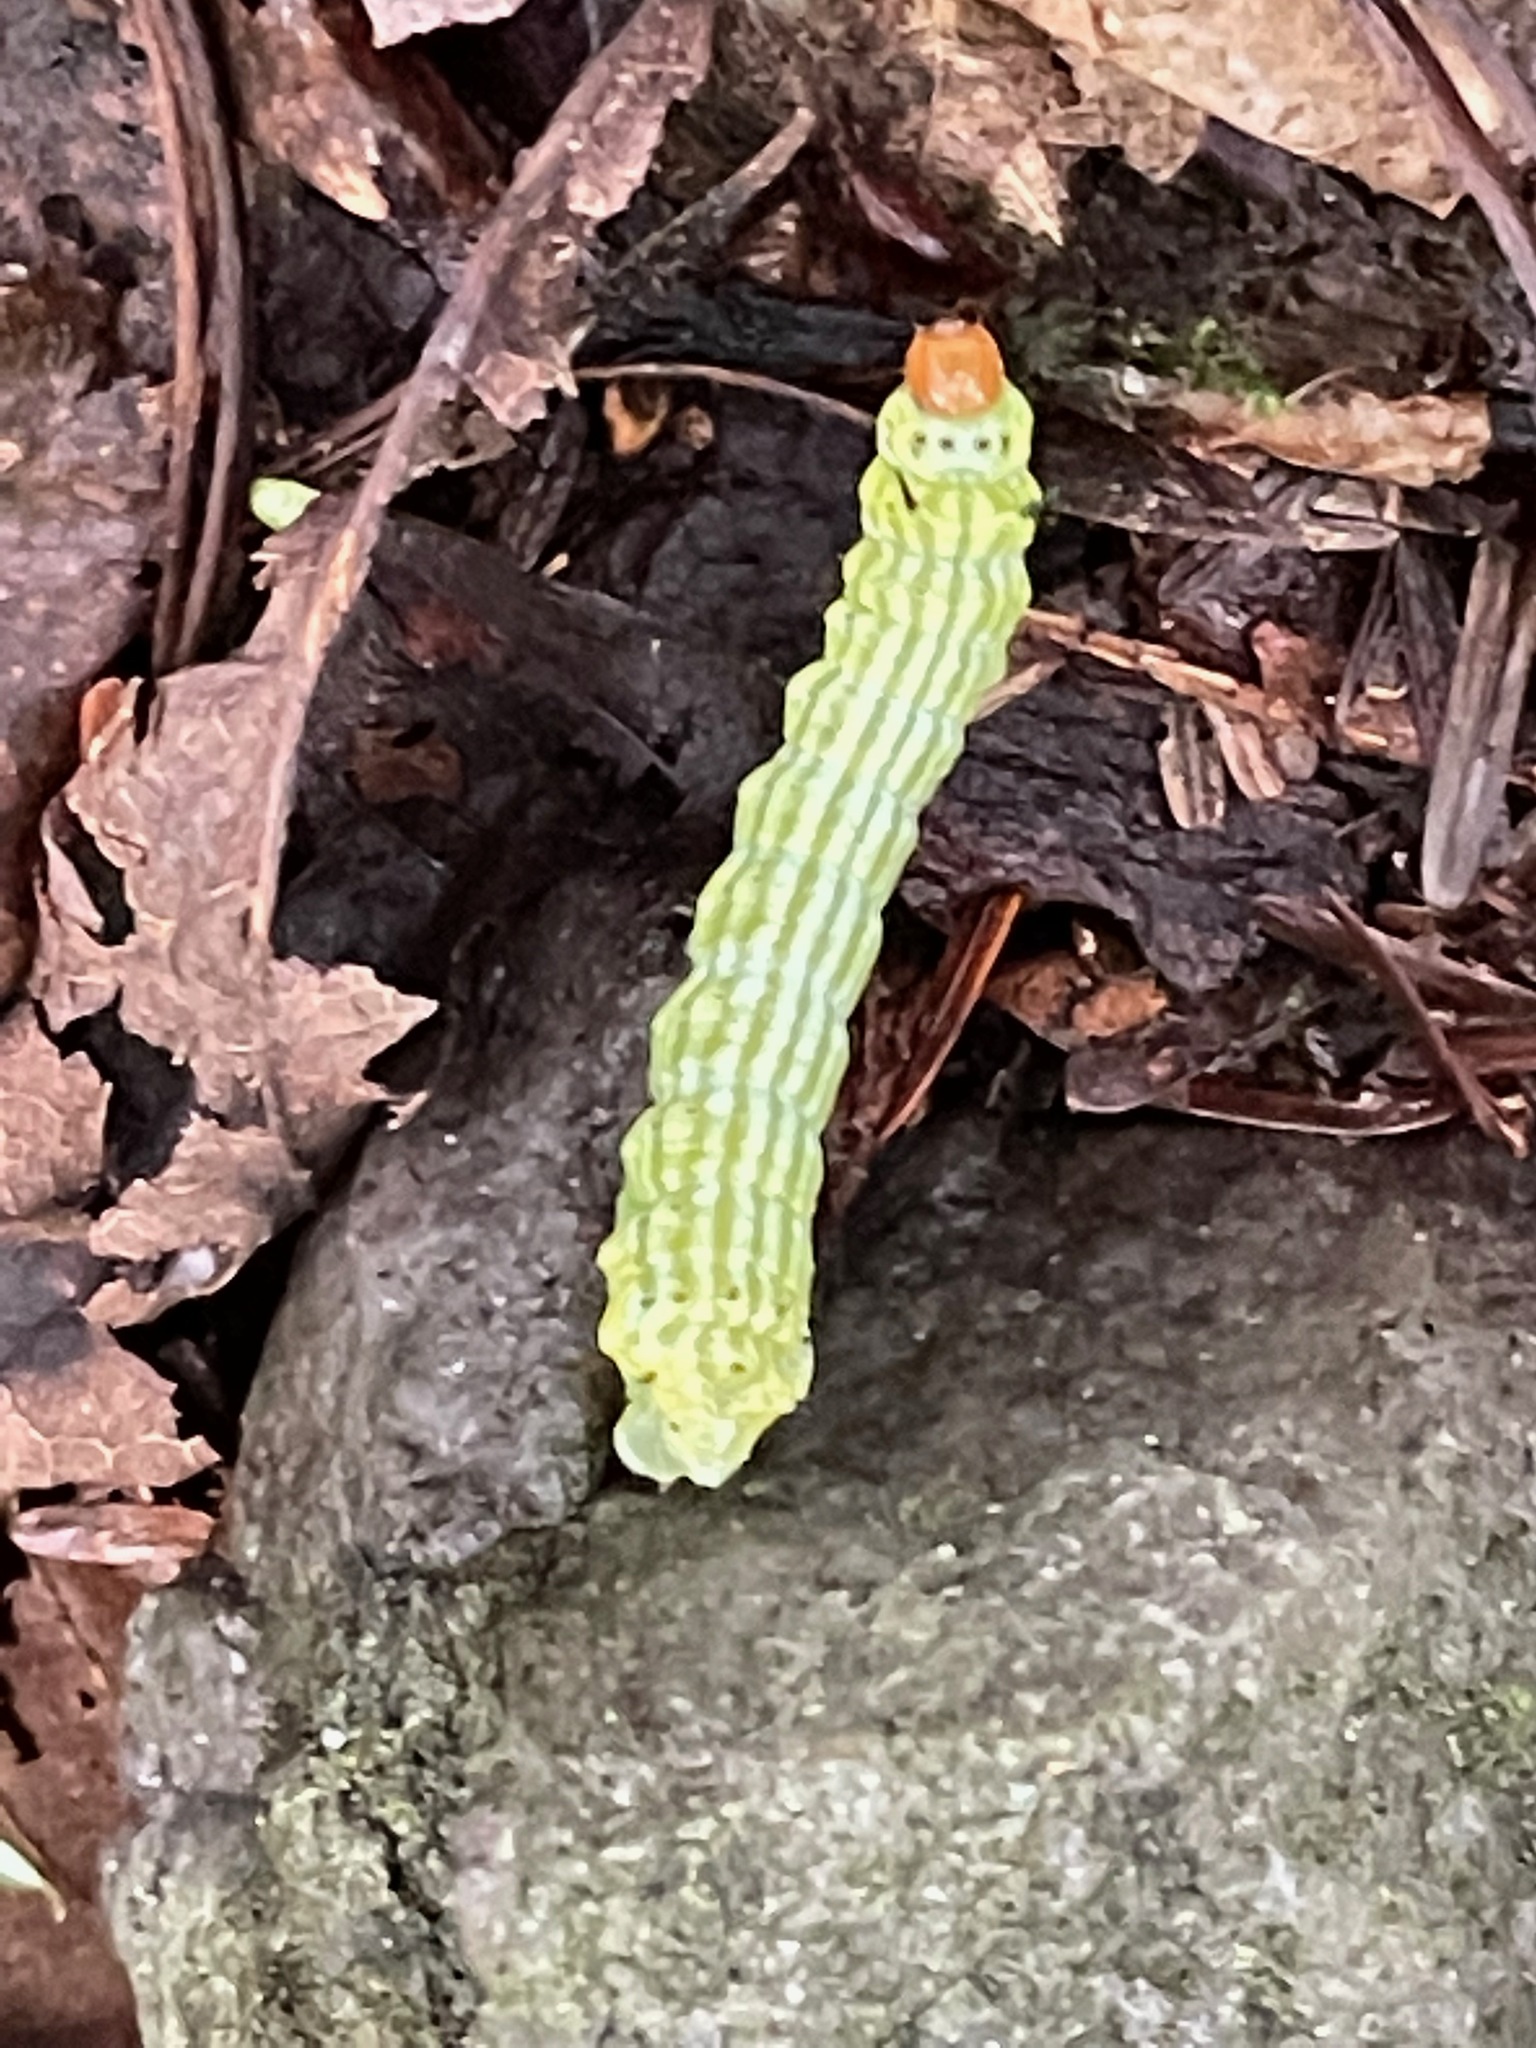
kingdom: Animalia
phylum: Arthropoda
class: Insecta
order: Lepidoptera
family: Saturniidae
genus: Dryocampa
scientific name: Dryocampa rubicunda
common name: Rosy maple moth
